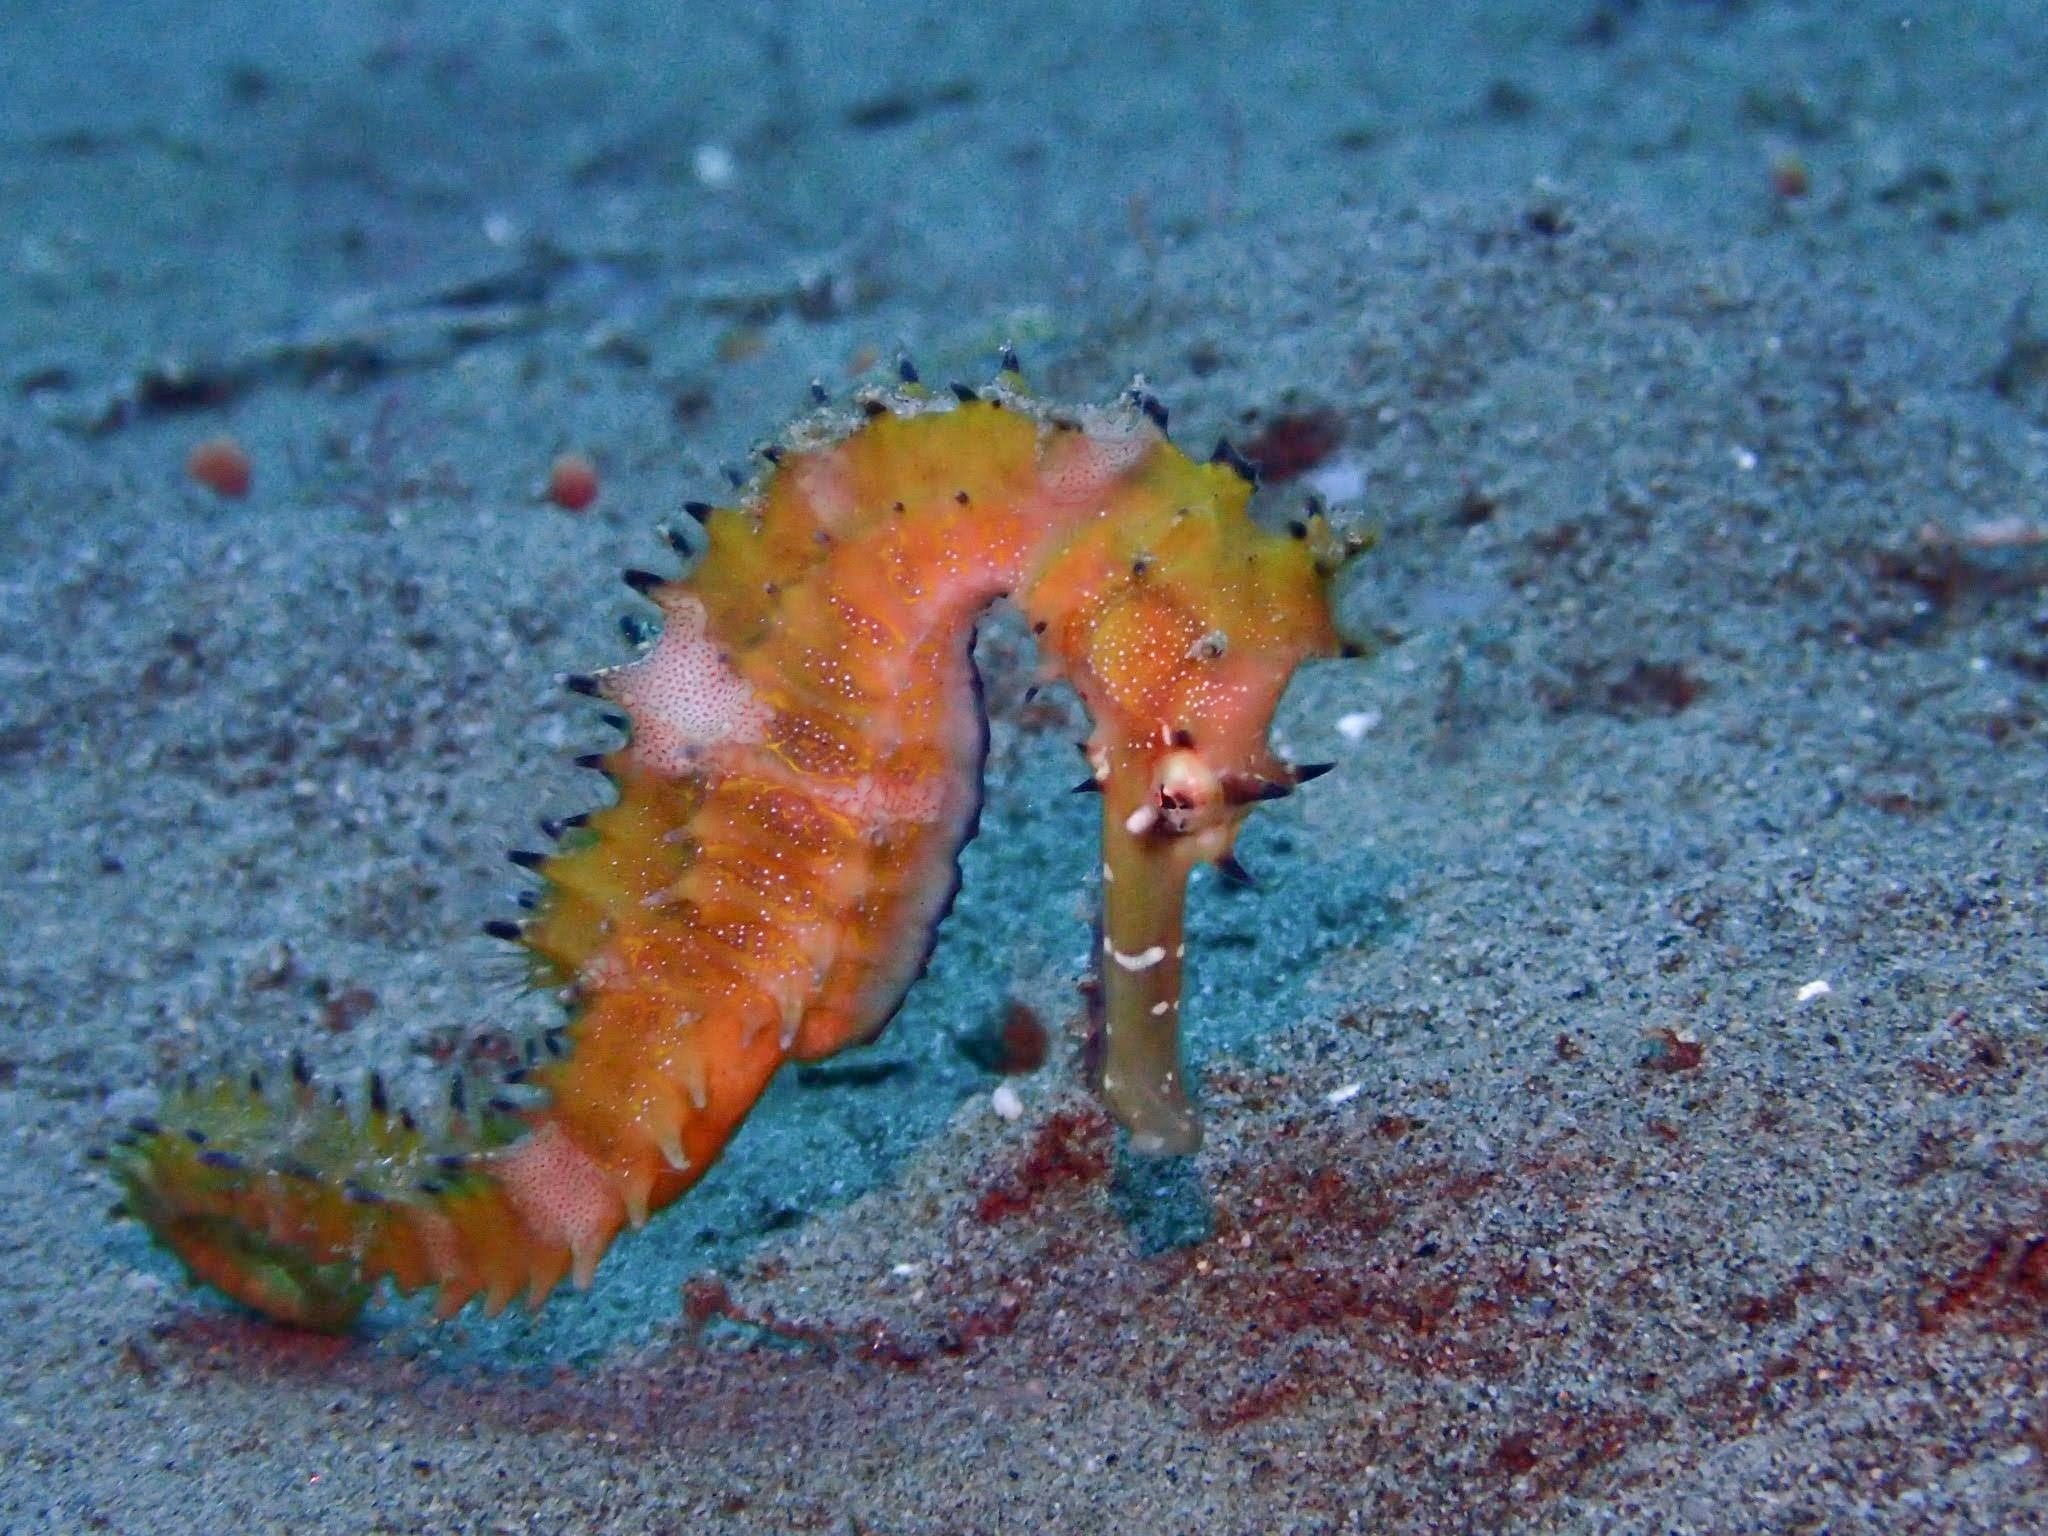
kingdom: Animalia
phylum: Chordata
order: Syngnathiformes
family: Syngnathidae
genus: Hippocampus
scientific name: Hippocampus histrix
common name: Longspine seahorse
